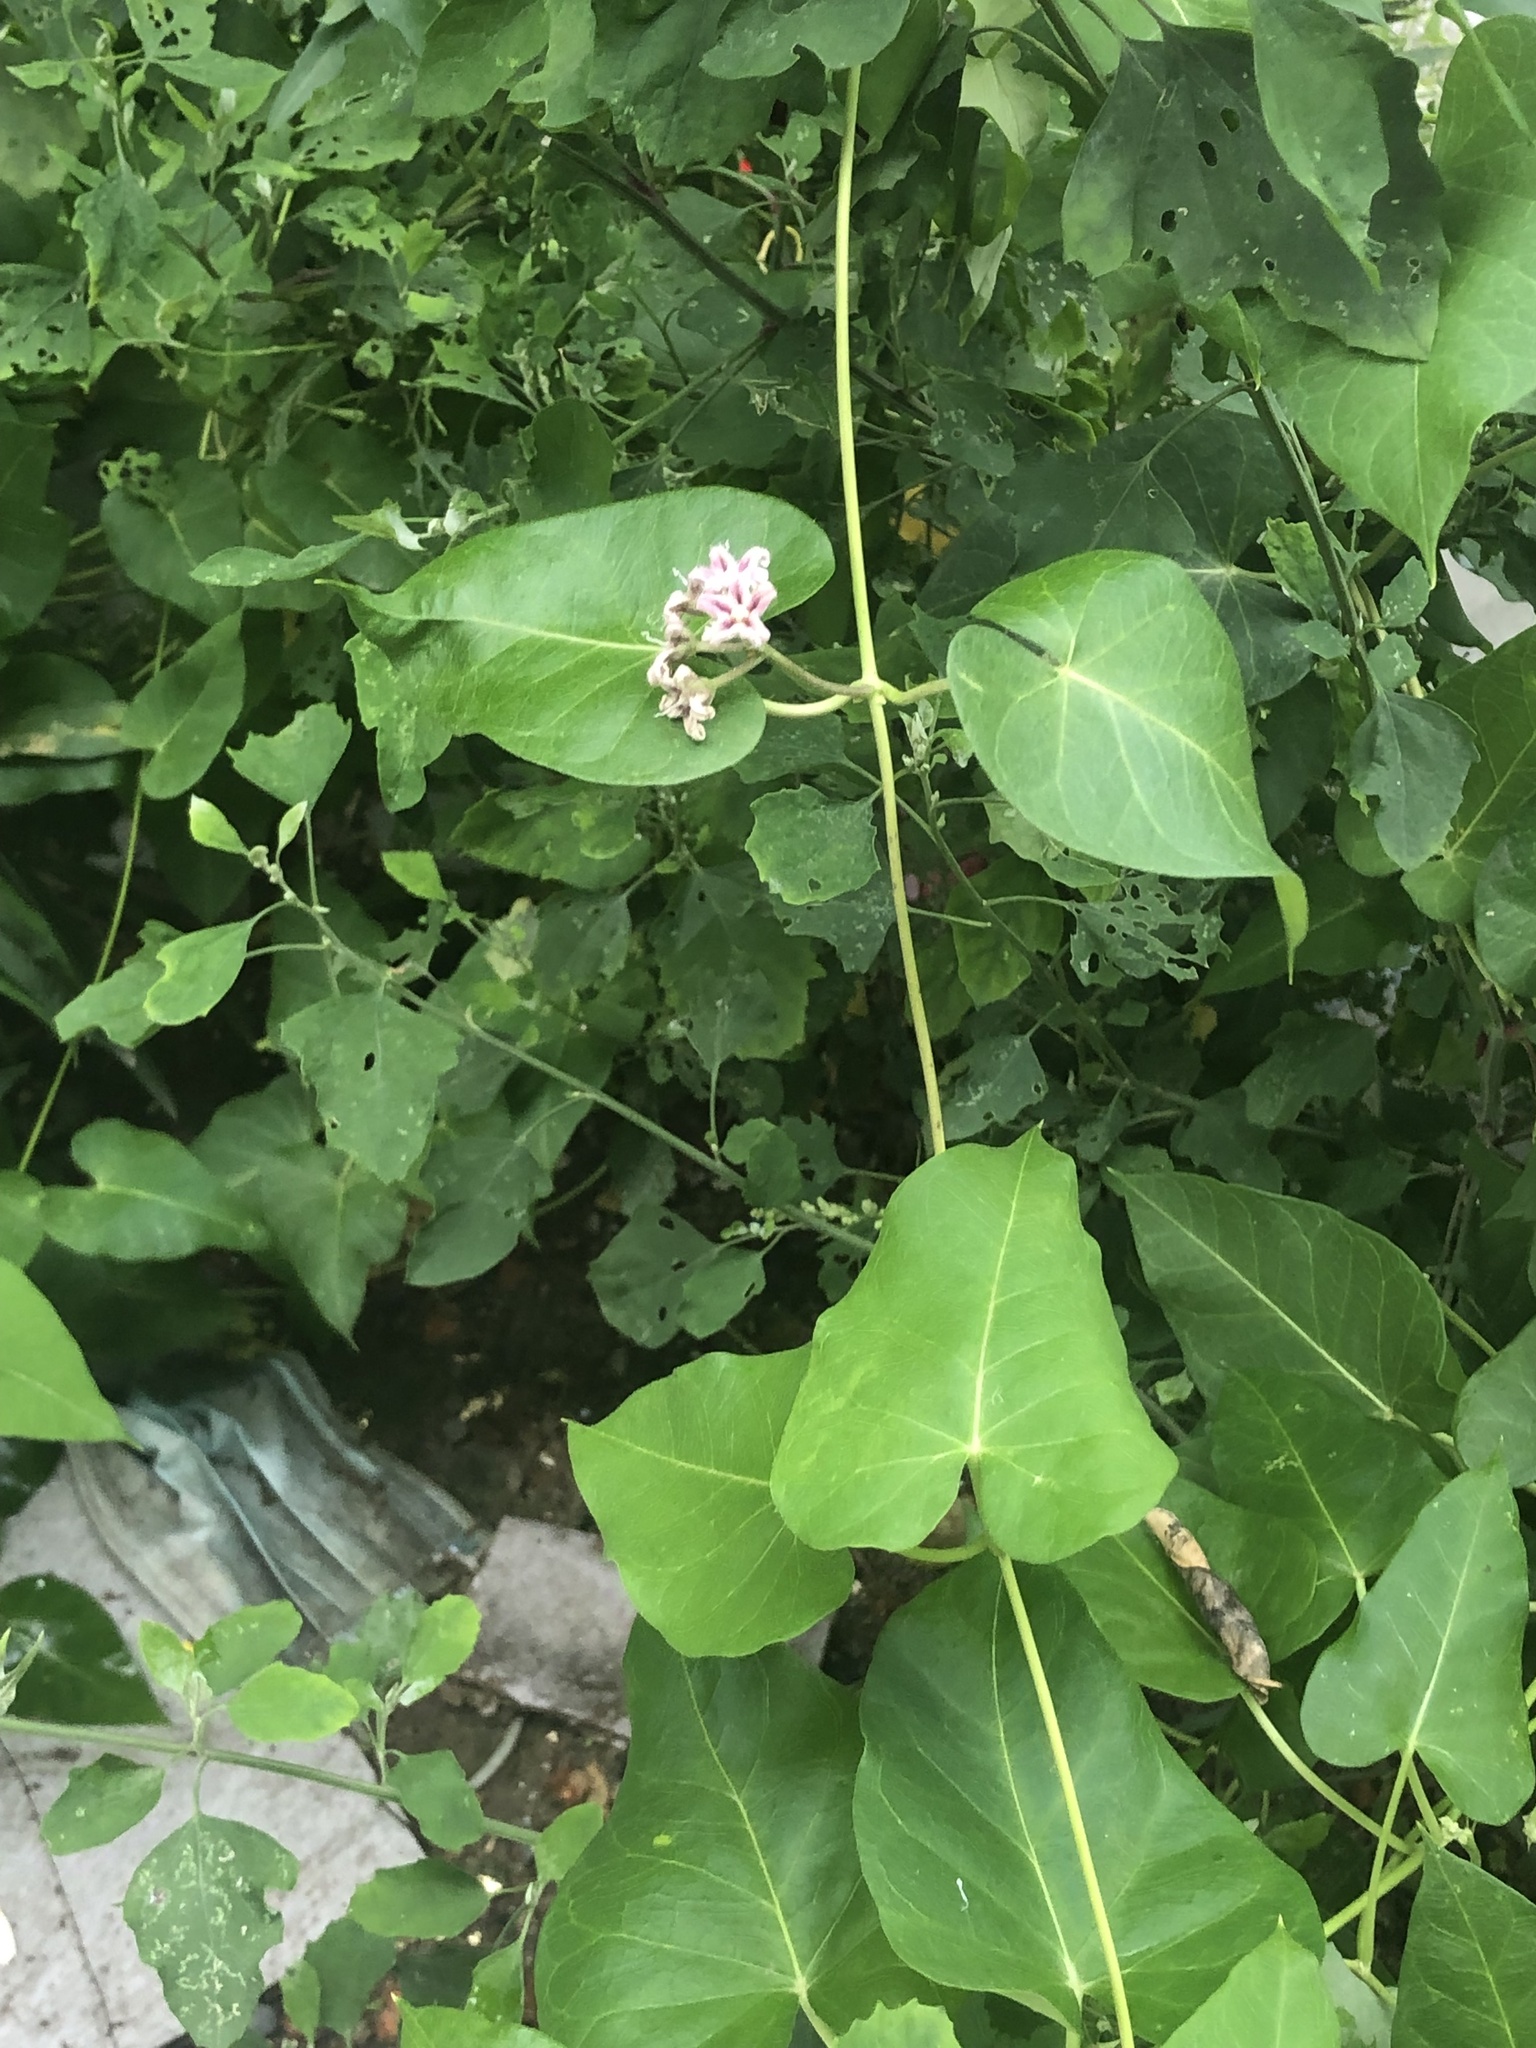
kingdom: Plantae
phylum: Tracheophyta
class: Magnoliopsida
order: Gentianales
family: Apocynaceae
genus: Cynanchum
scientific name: Cynanchum rostellatum
